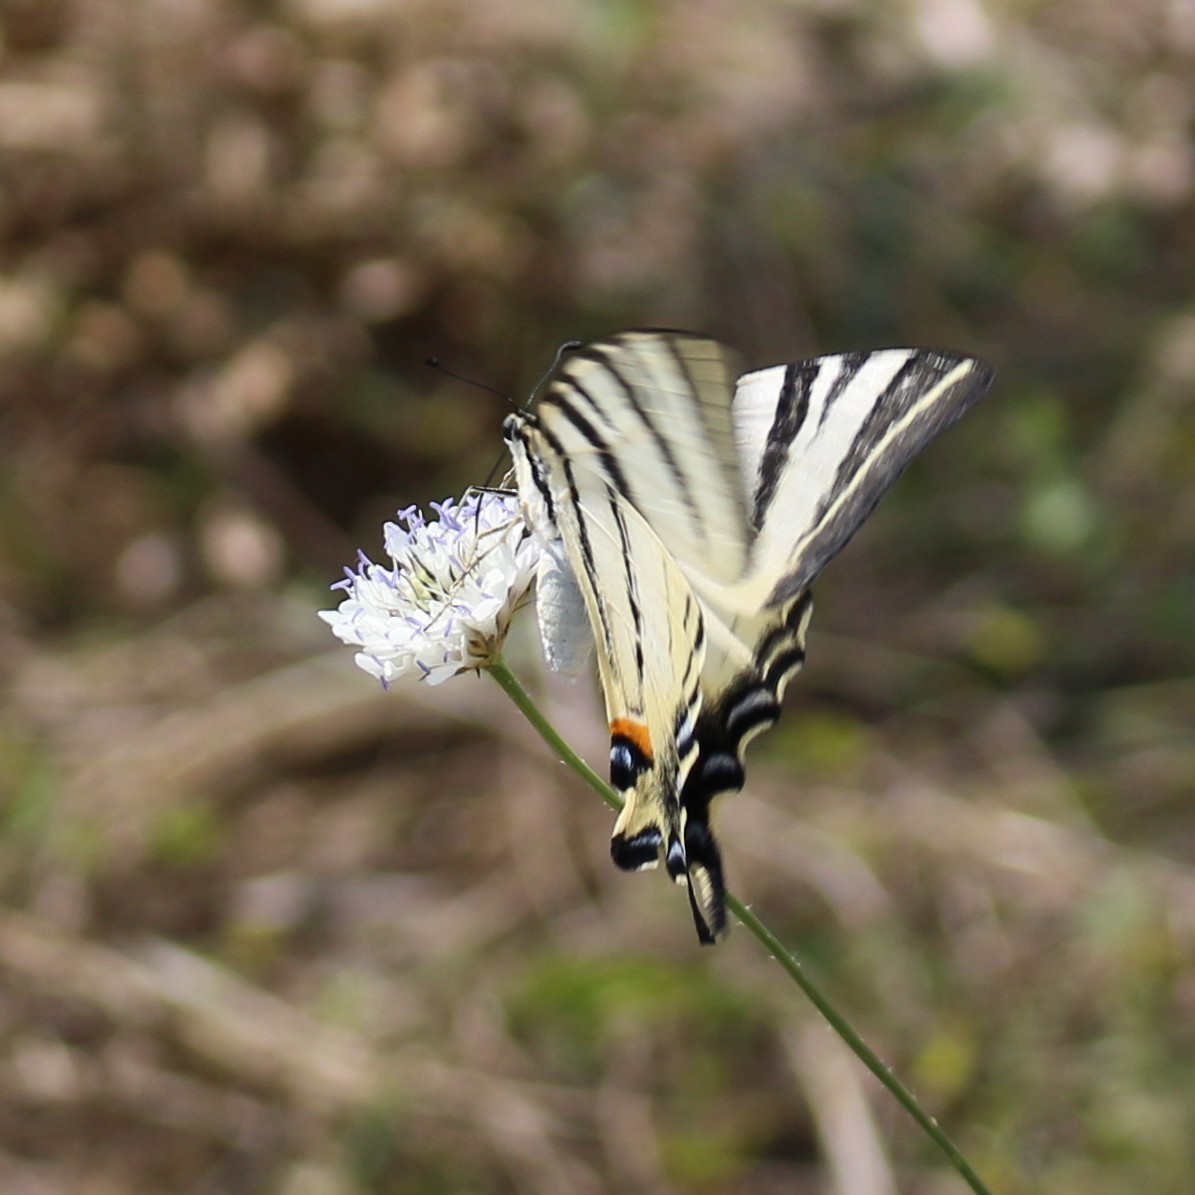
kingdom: Animalia
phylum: Arthropoda
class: Insecta
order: Lepidoptera
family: Papilionidae
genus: Iphiclides
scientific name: Iphiclides podalirius
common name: Scarce swallowtail
